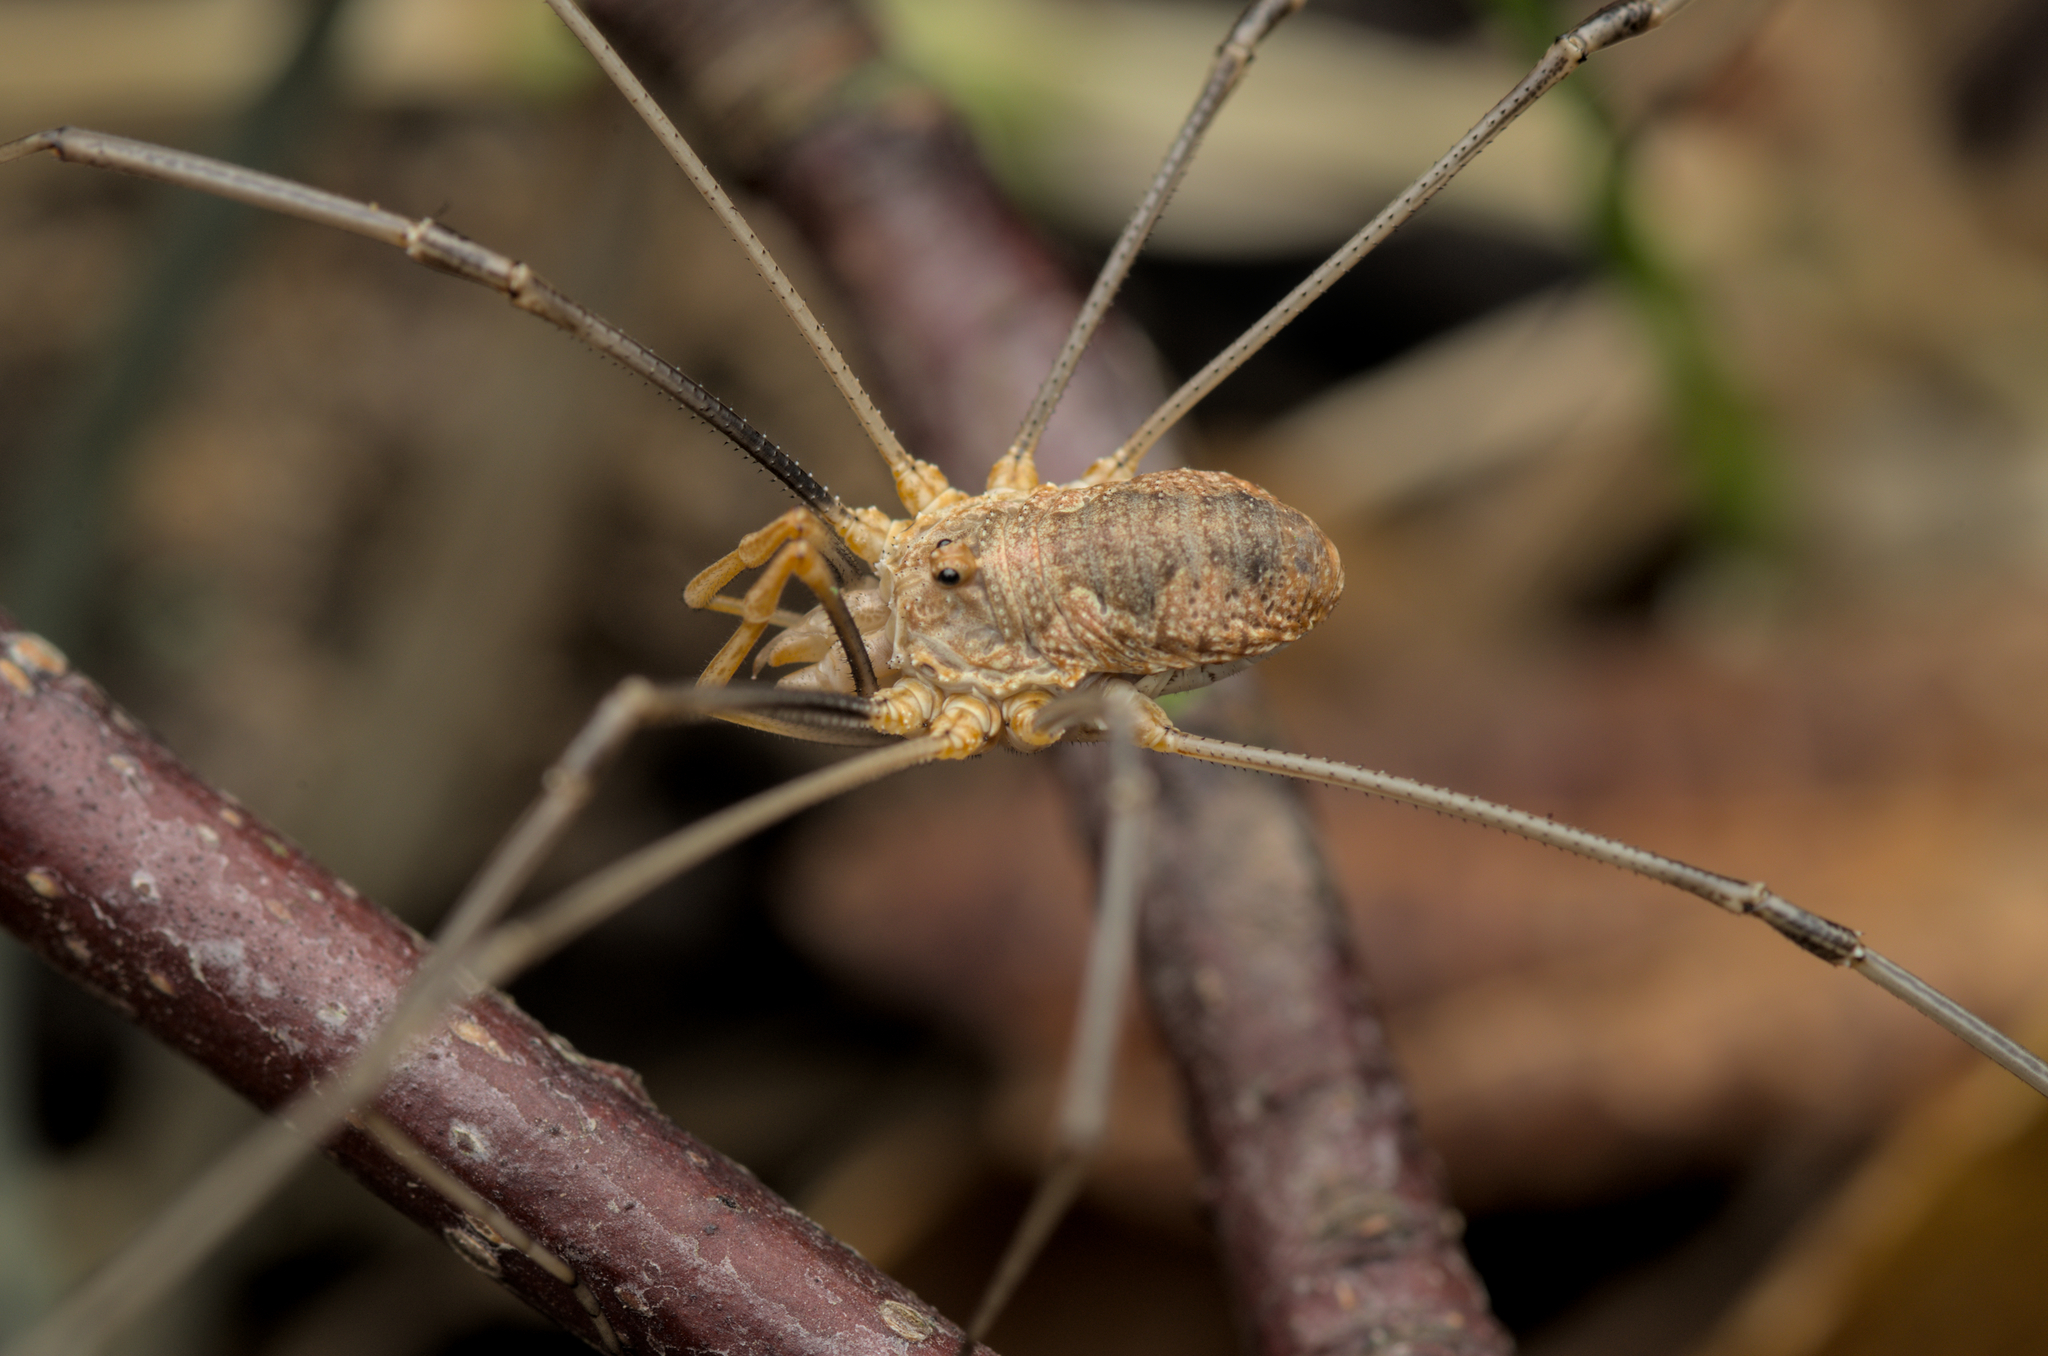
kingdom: Animalia
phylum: Arthropoda
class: Arachnida
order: Opiliones
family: Phalangiidae
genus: Phalangium
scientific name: Phalangium opilio
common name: Daddy longleg
